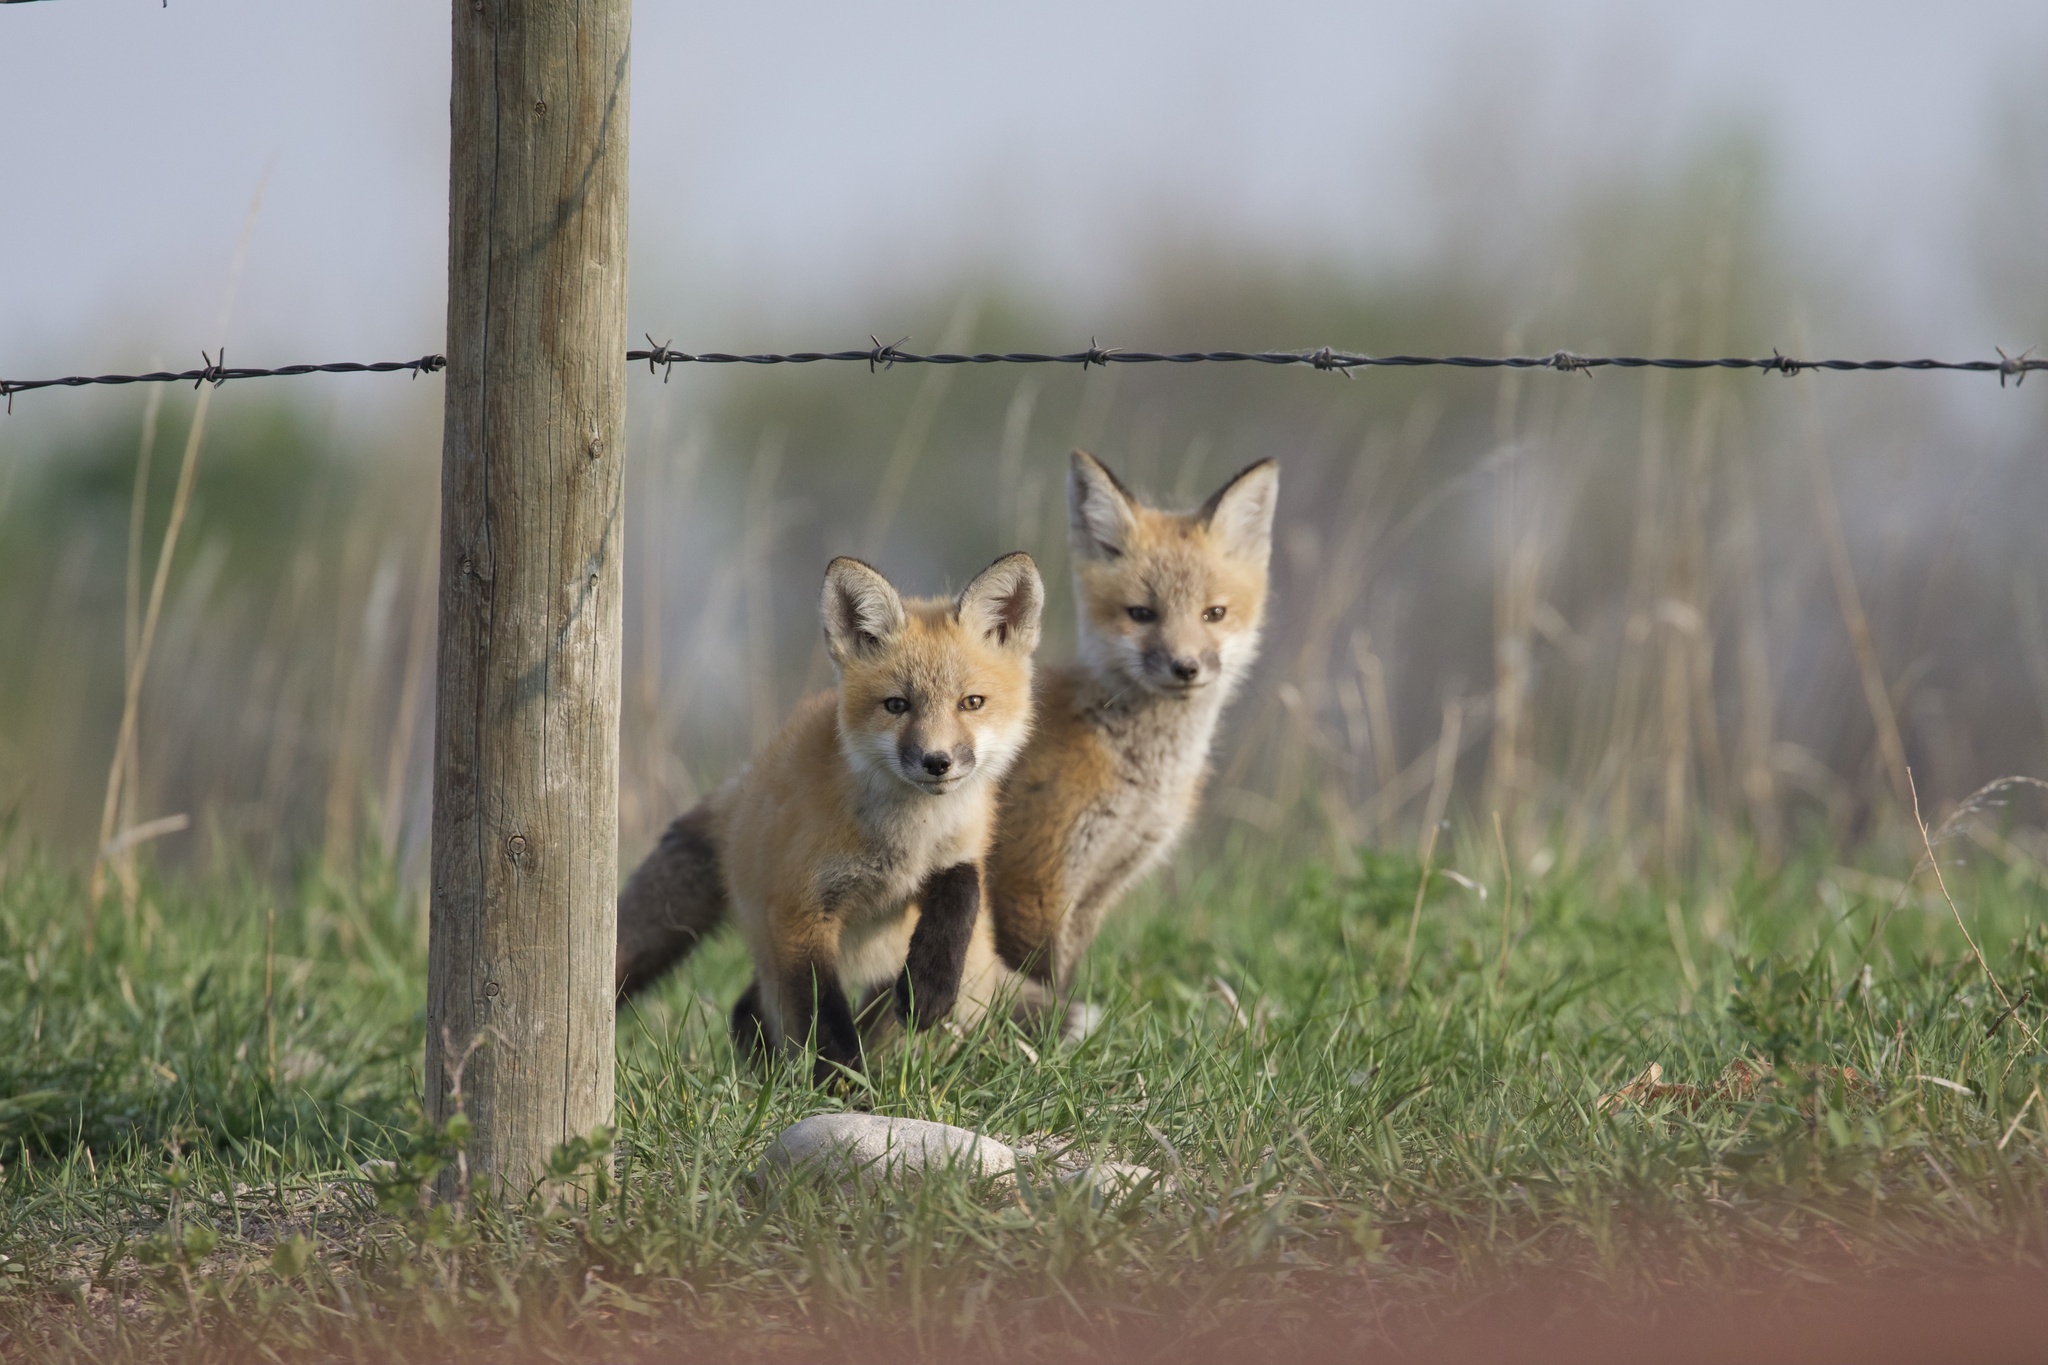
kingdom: Animalia
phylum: Chordata
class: Mammalia
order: Carnivora
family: Canidae
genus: Vulpes
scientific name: Vulpes vulpes
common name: Red fox
